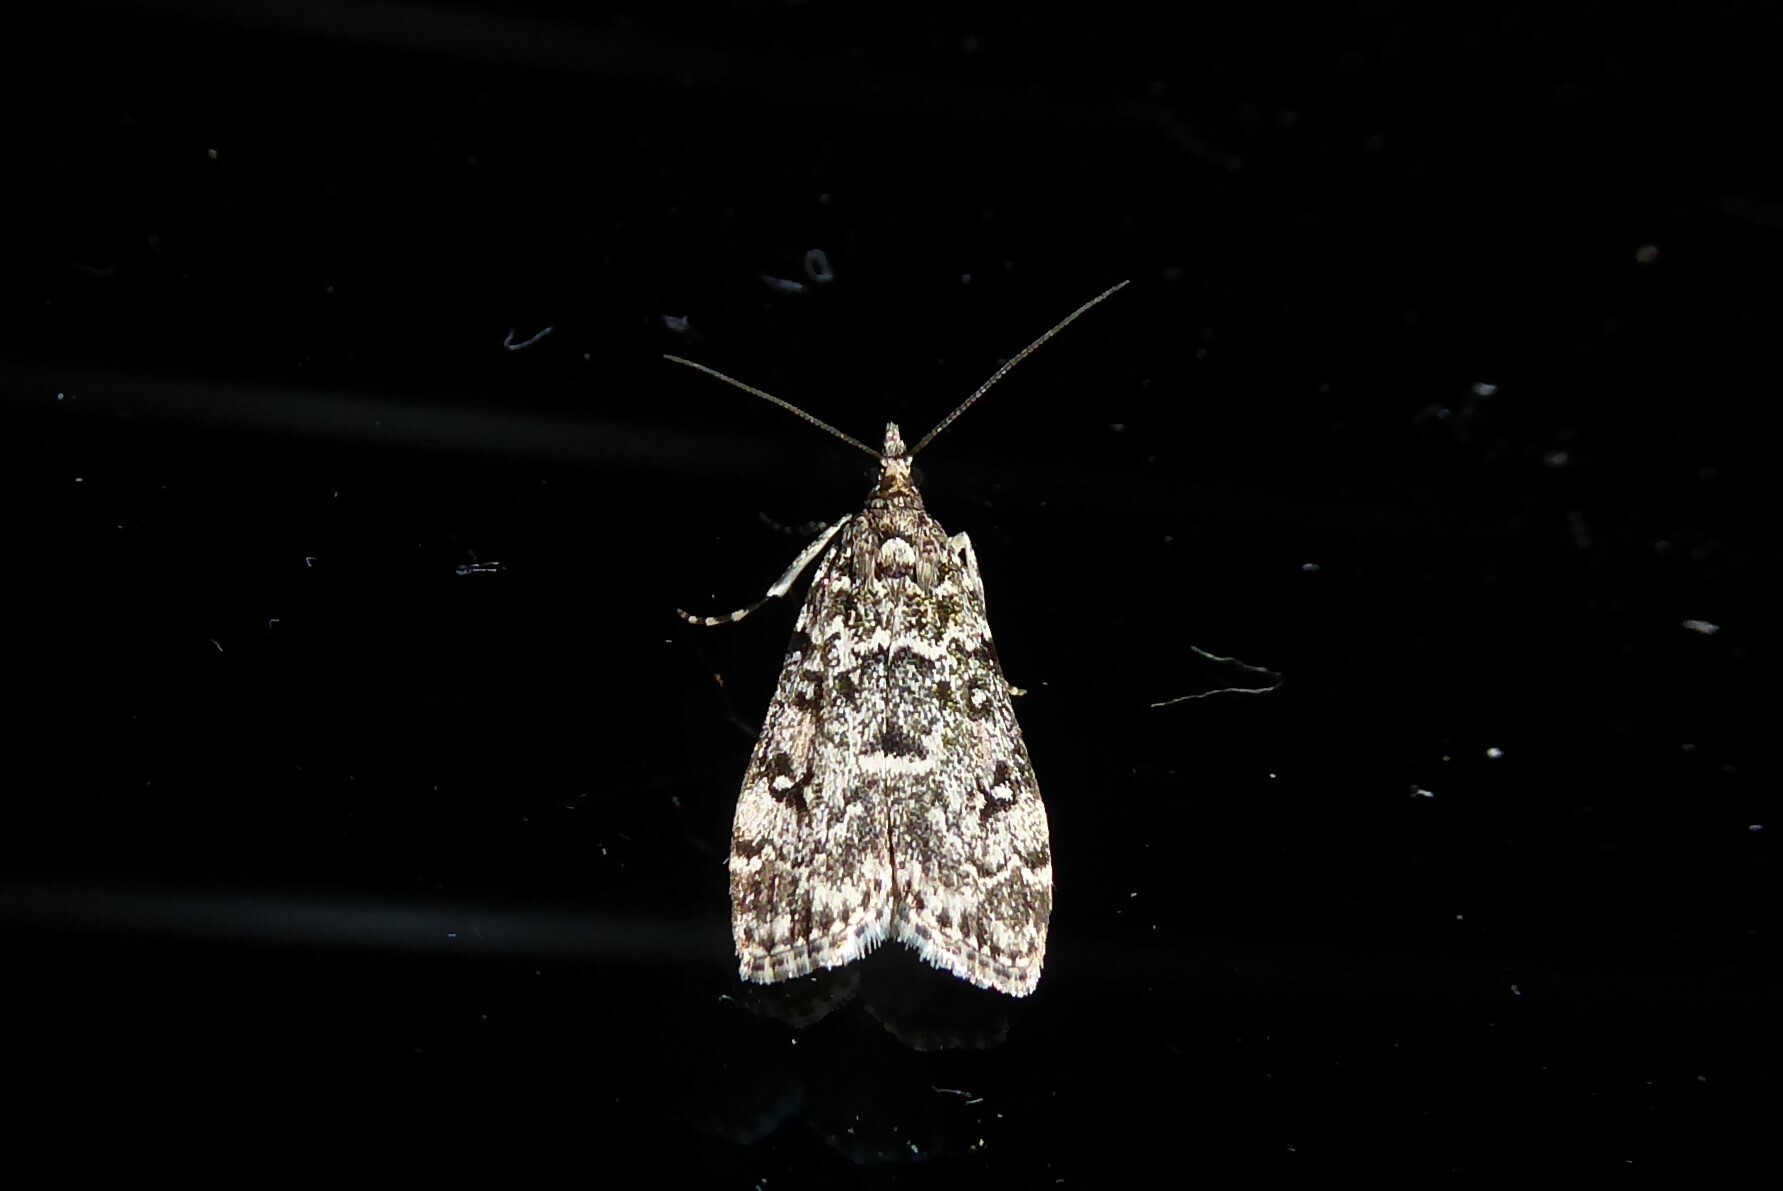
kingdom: Animalia
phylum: Arthropoda
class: Insecta
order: Lepidoptera
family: Crambidae
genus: Eudonia
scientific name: Eudonia philerga
